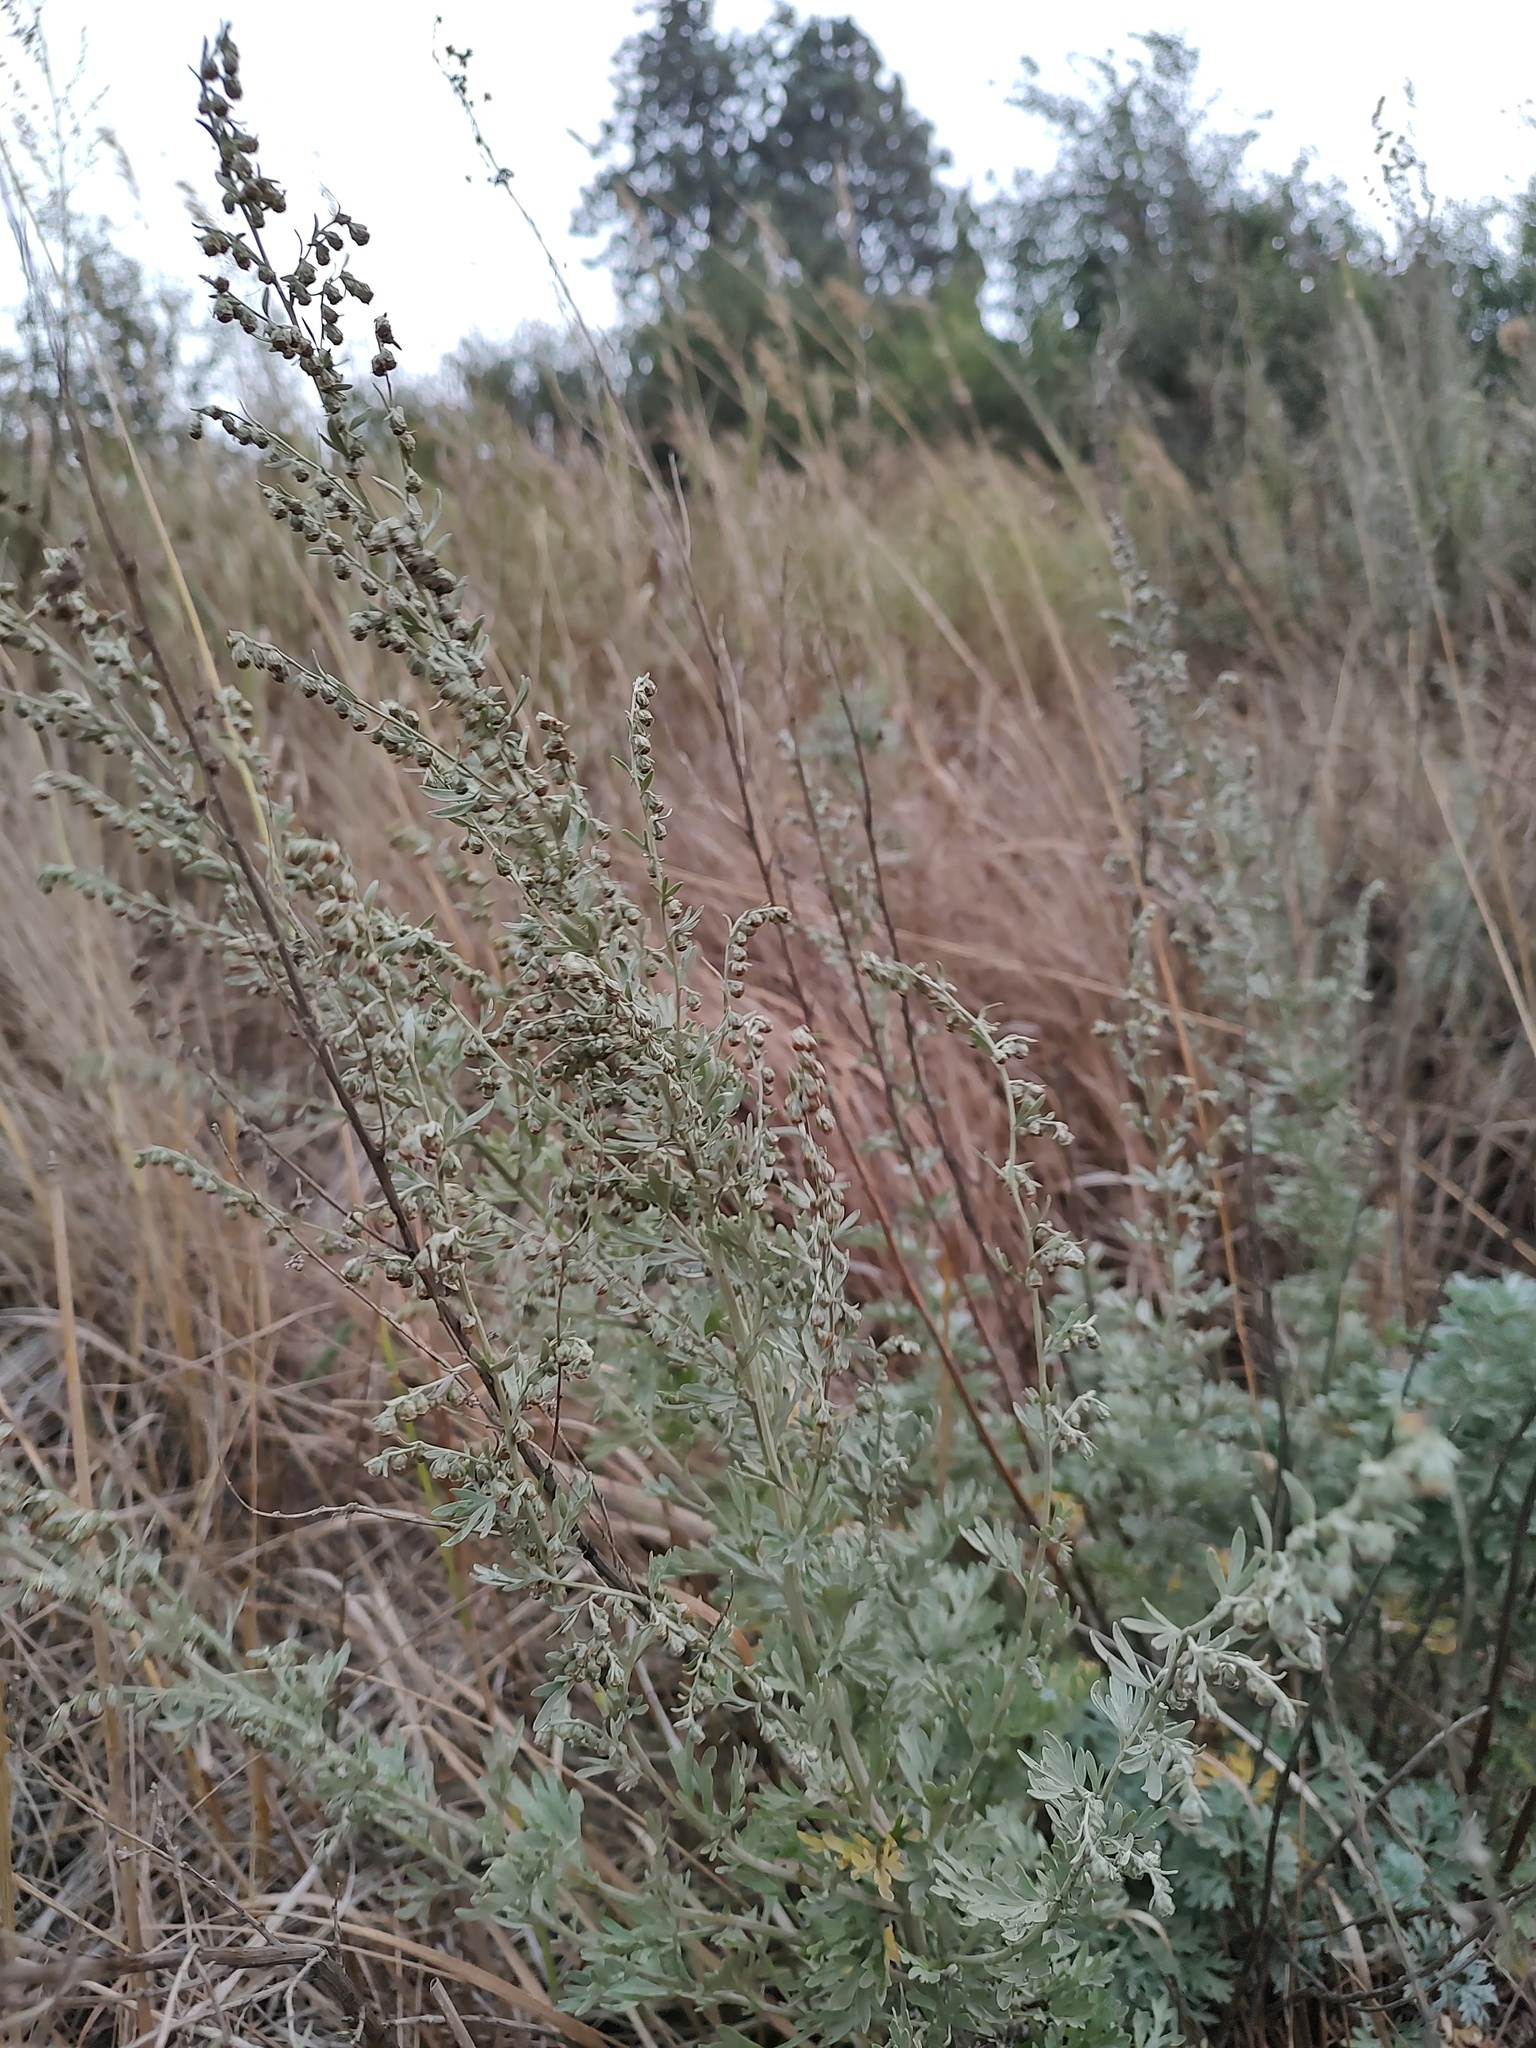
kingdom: Plantae
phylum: Tracheophyta
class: Magnoliopsida
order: Asterales
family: Asteraceae
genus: Artemisia
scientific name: Artemisia absinthium
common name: Wormwood
